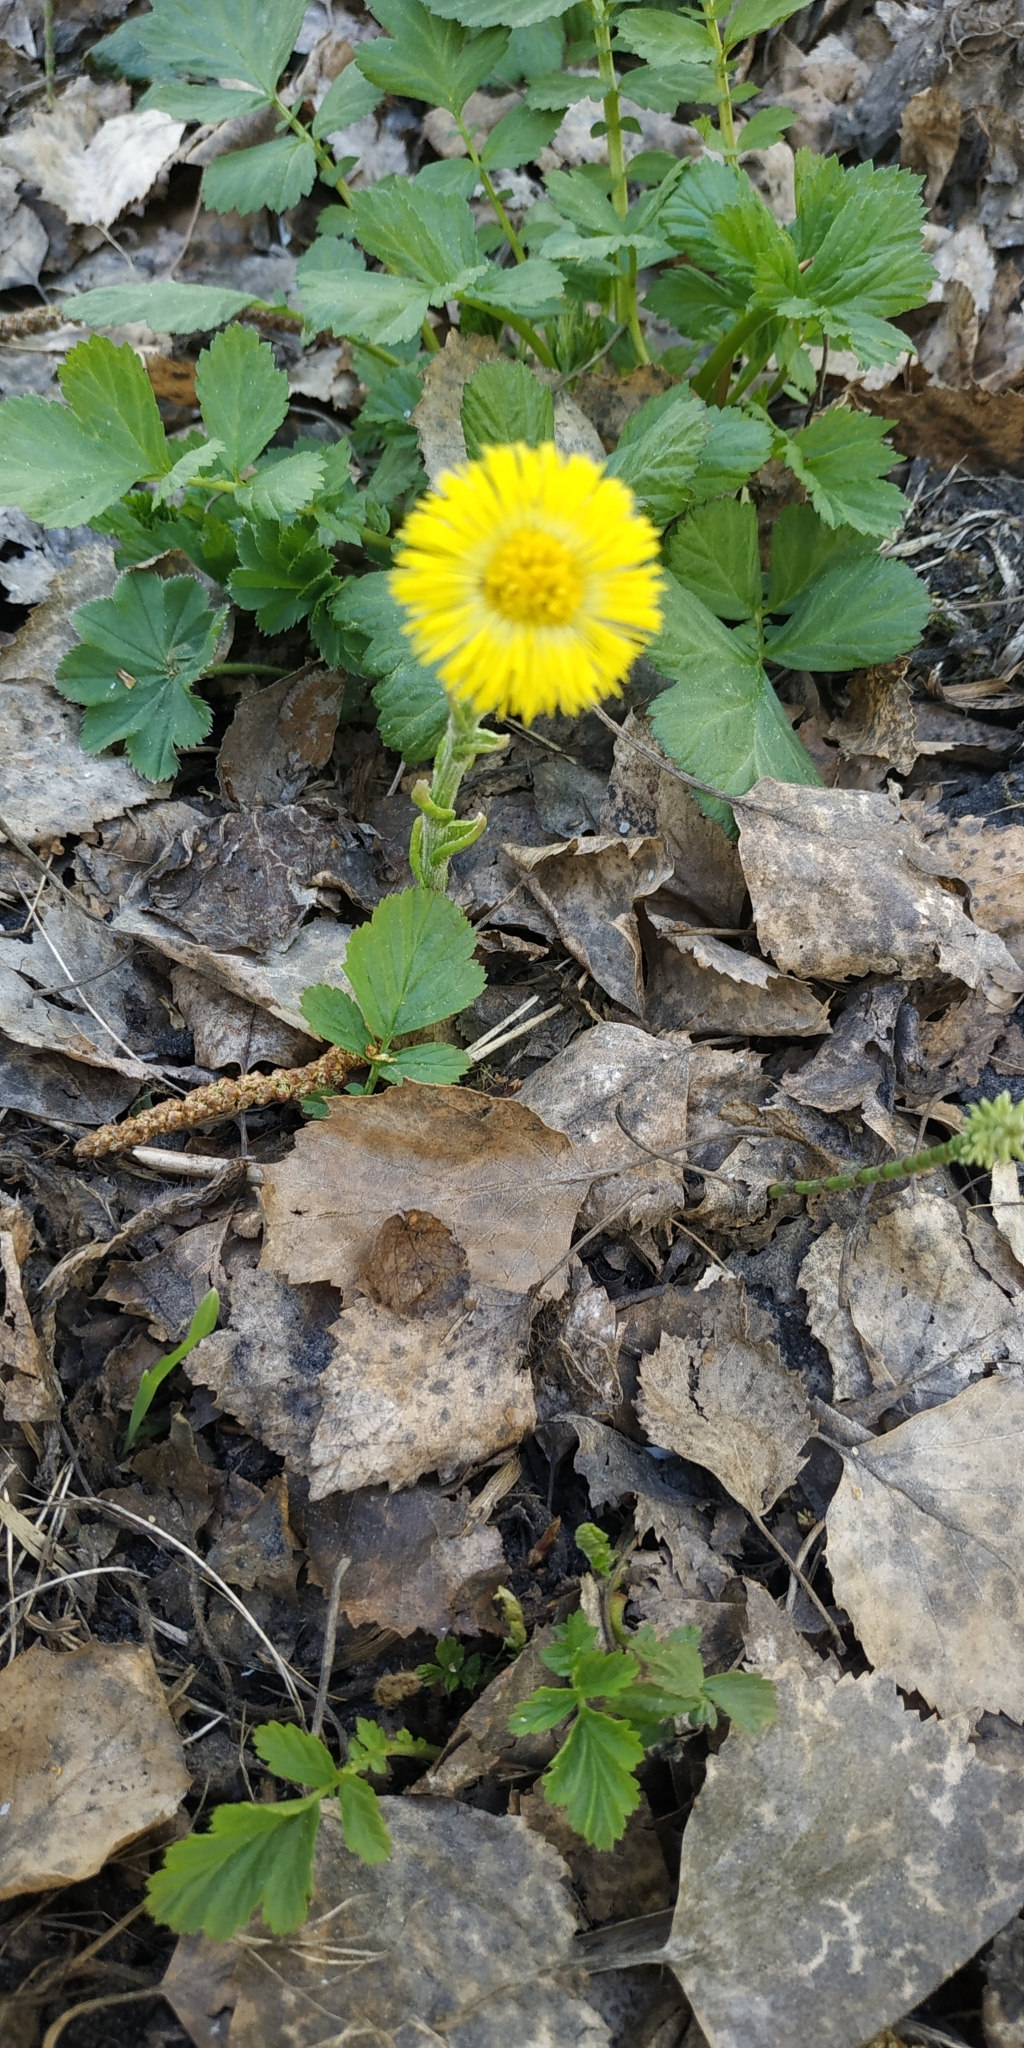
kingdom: Plantae
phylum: Tracheophyta
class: Magnoliopsida
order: Asterales
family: Asteraceae
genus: Tussilago
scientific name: Tussilago farfara
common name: Coltsfoot
